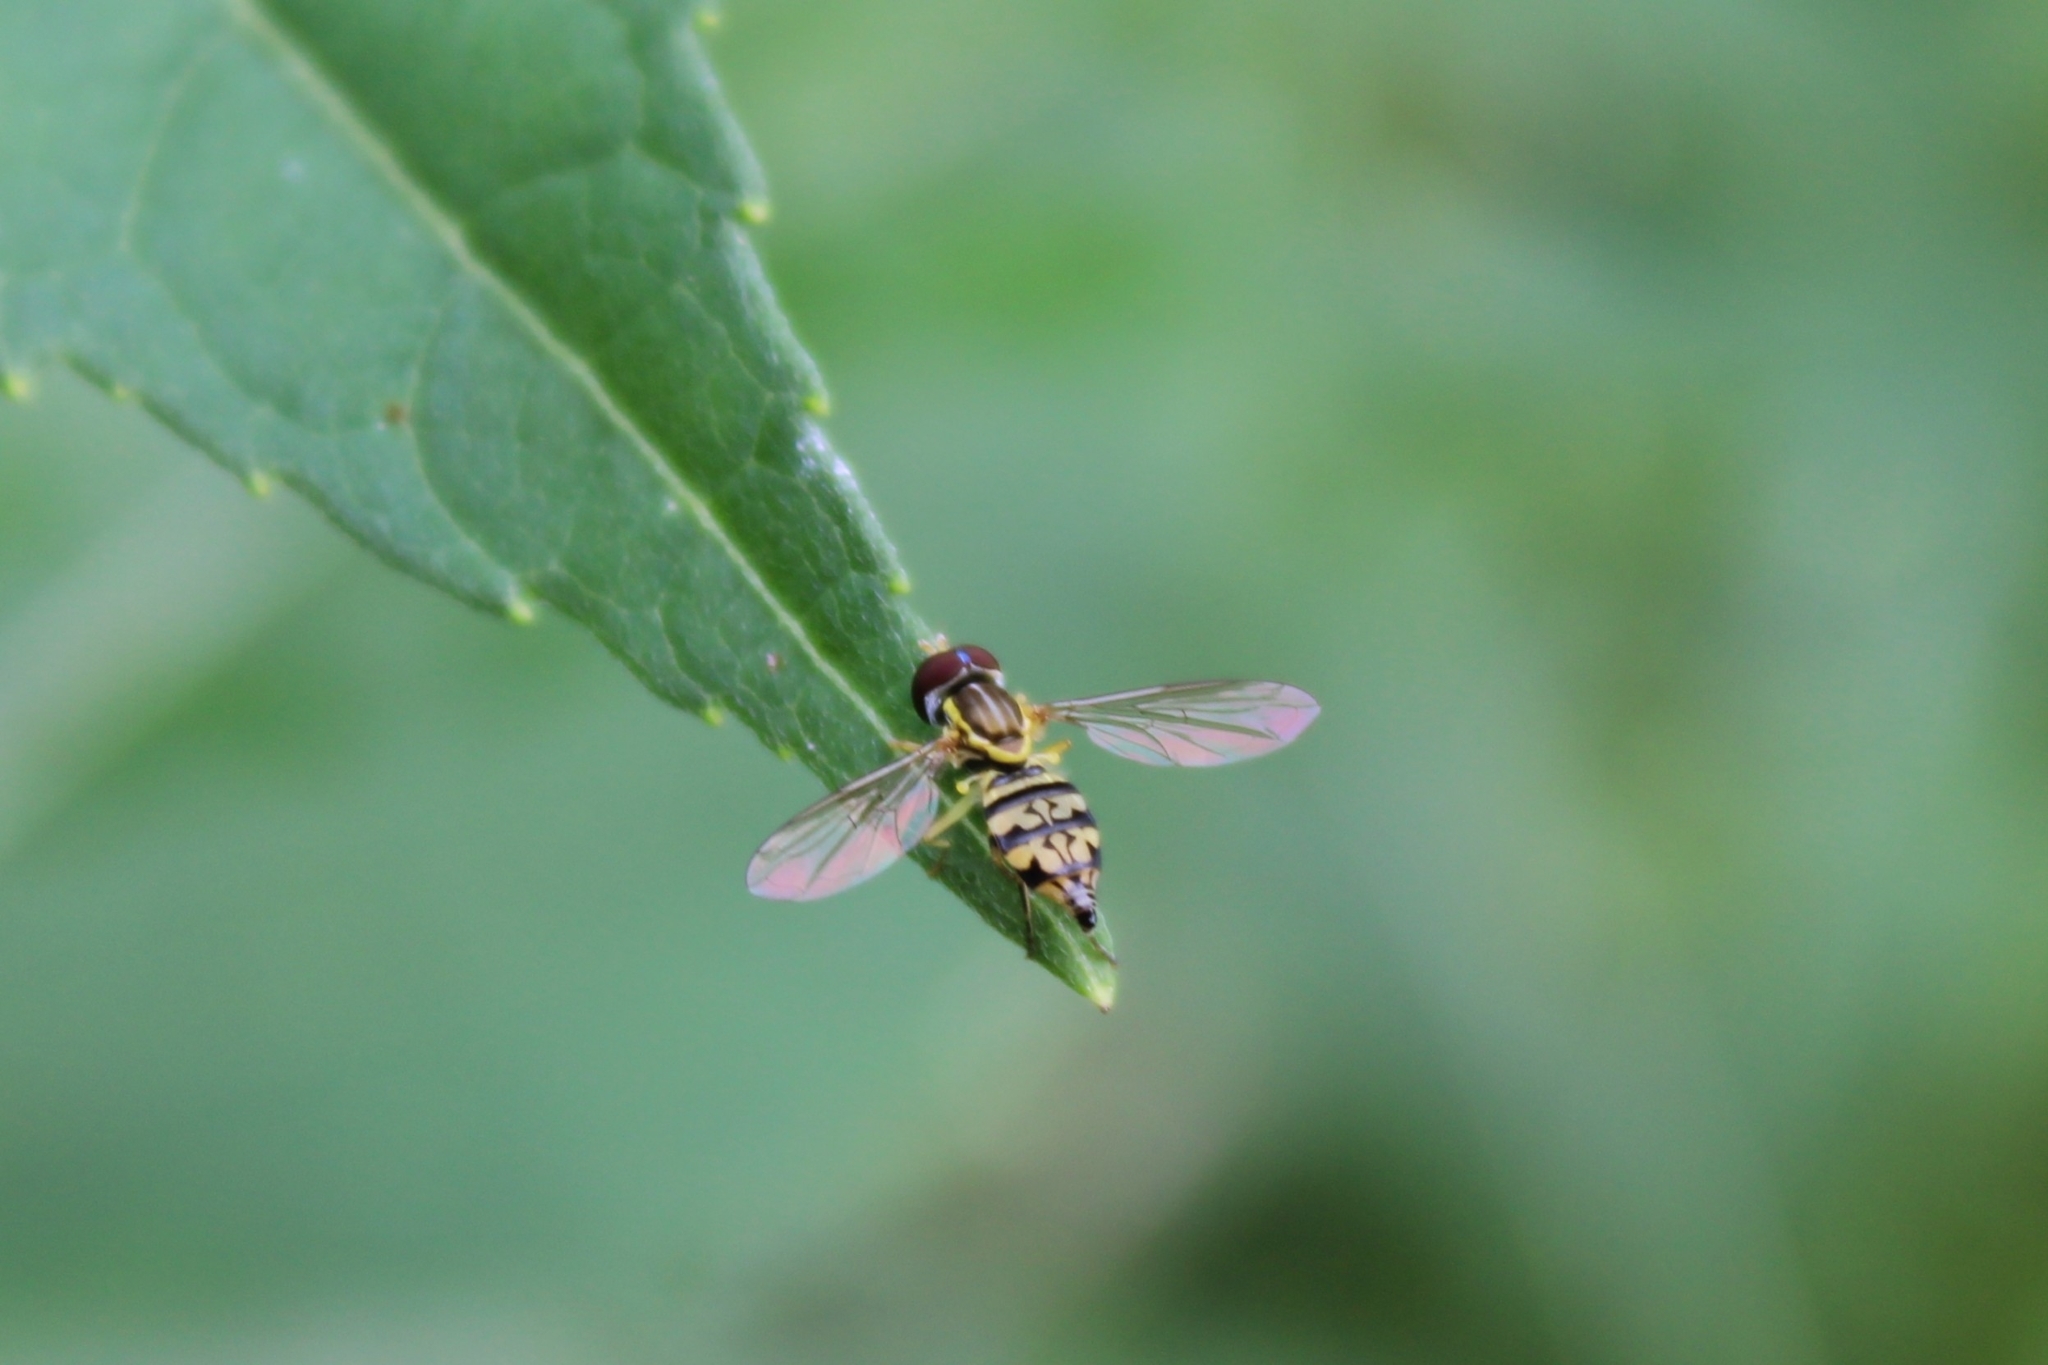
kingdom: Animalia
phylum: Arthropoda
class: Insecta
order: Diptera
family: Syrphidae
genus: Toxomerus
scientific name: Toxomerus geminatus
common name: Eastern calligrapher
